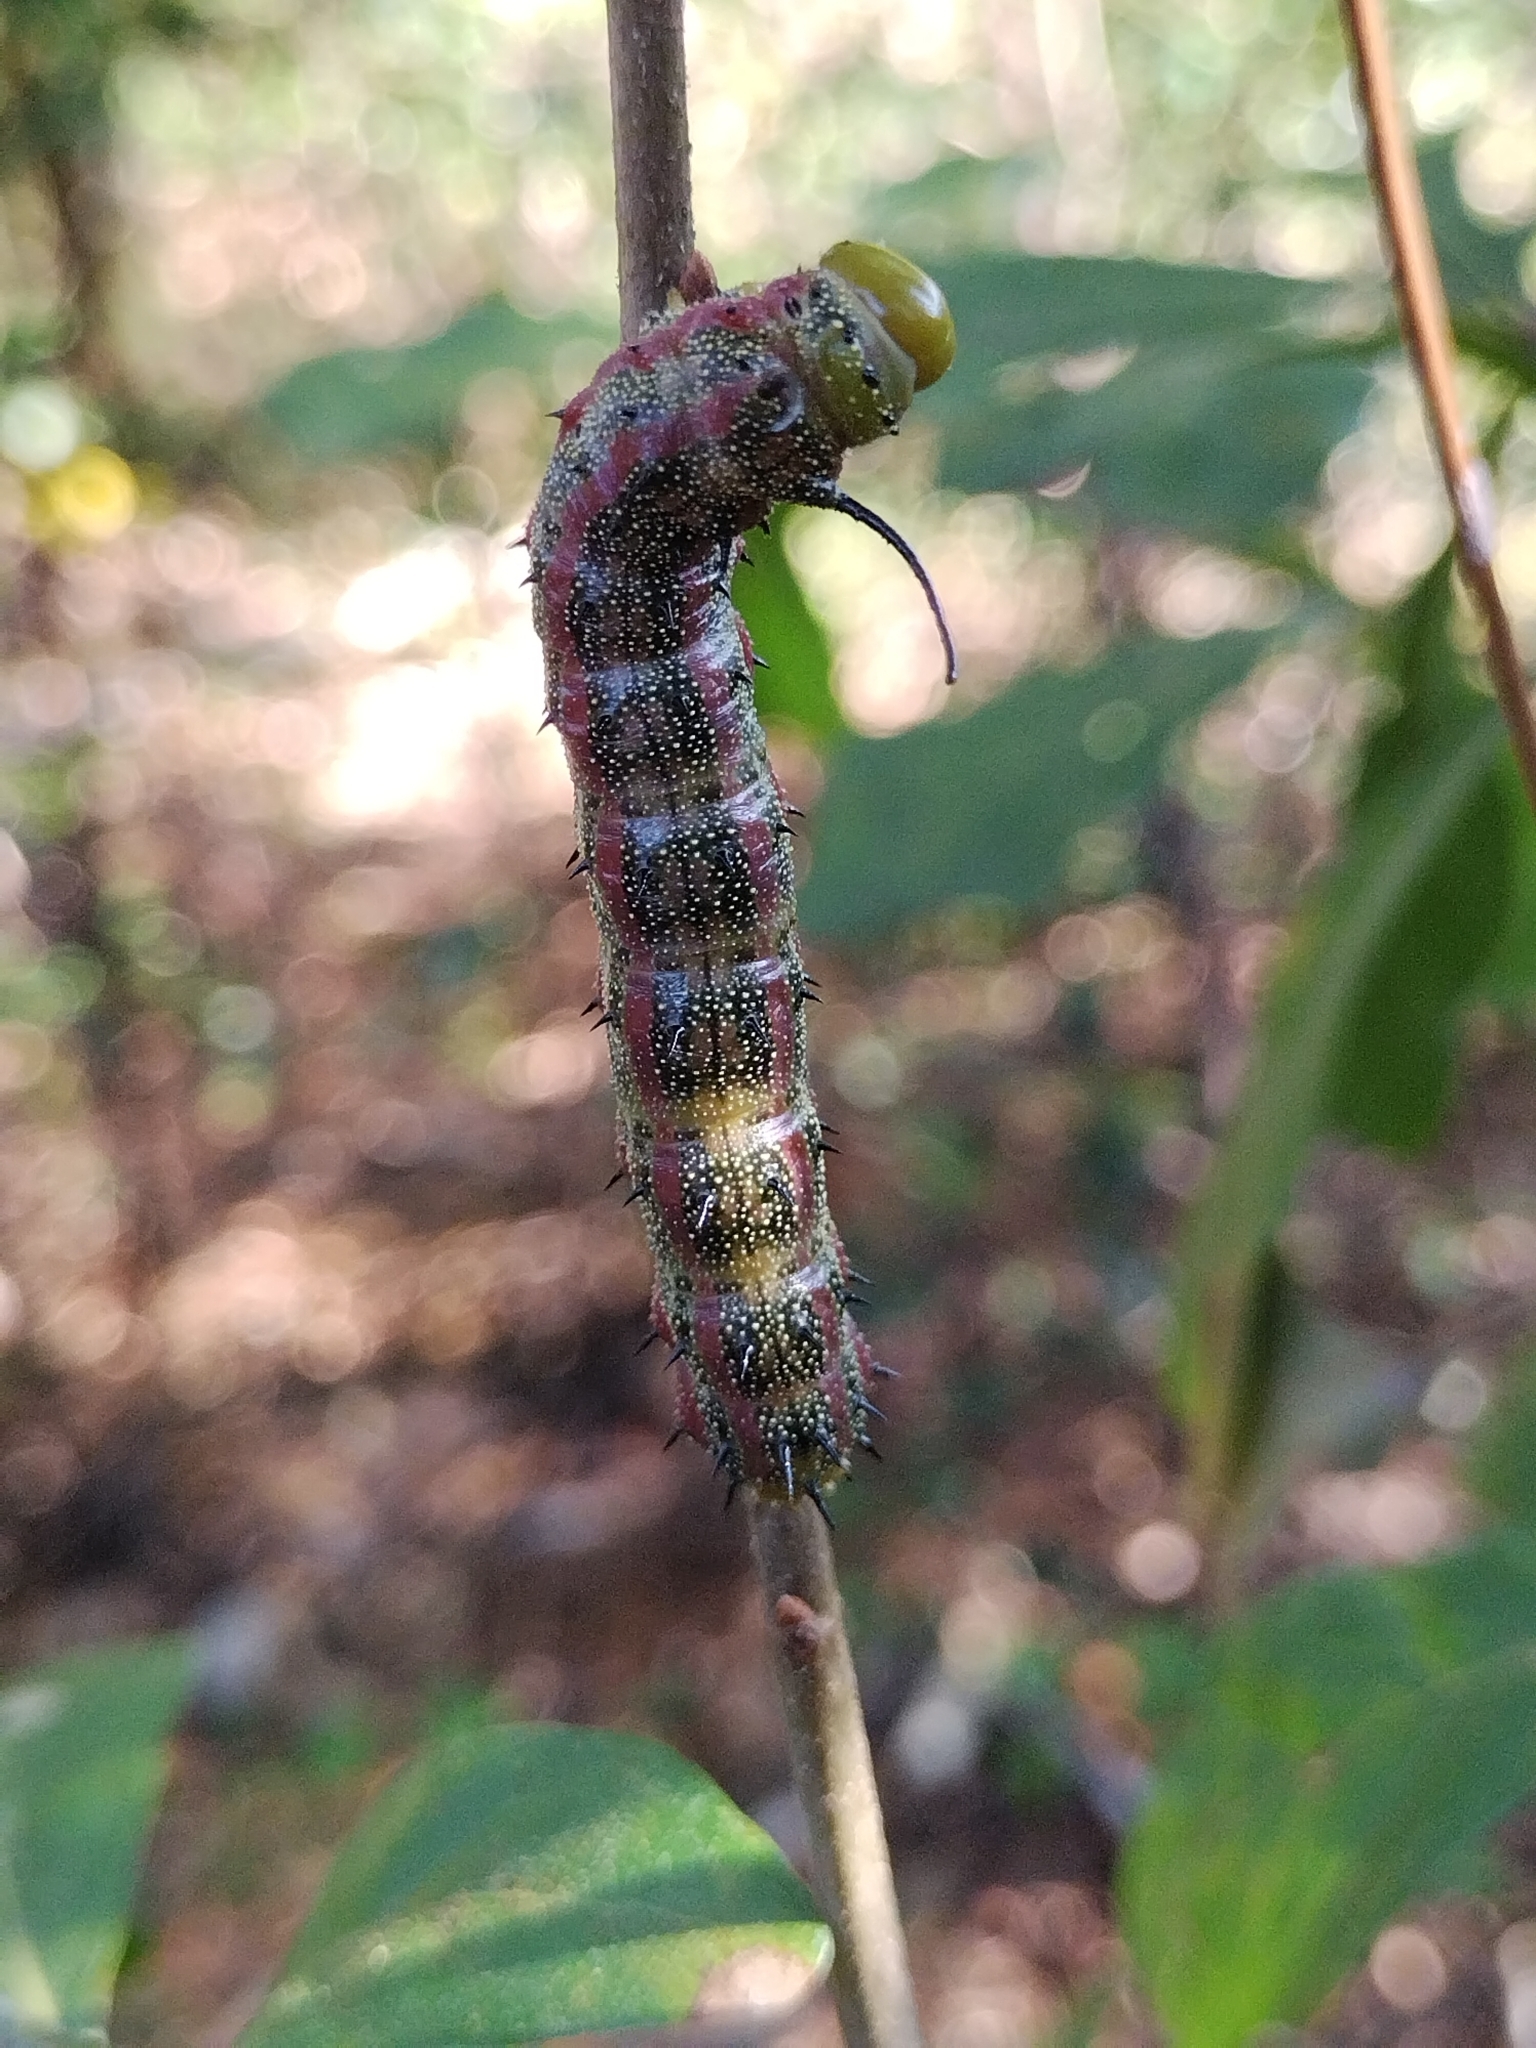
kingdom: Animalia
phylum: Arthropoda
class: Insecta
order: Lepidoptera
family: Saturniidae
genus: Anisota
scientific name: Anisota virginiensis
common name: Pink striped oakworm moth
